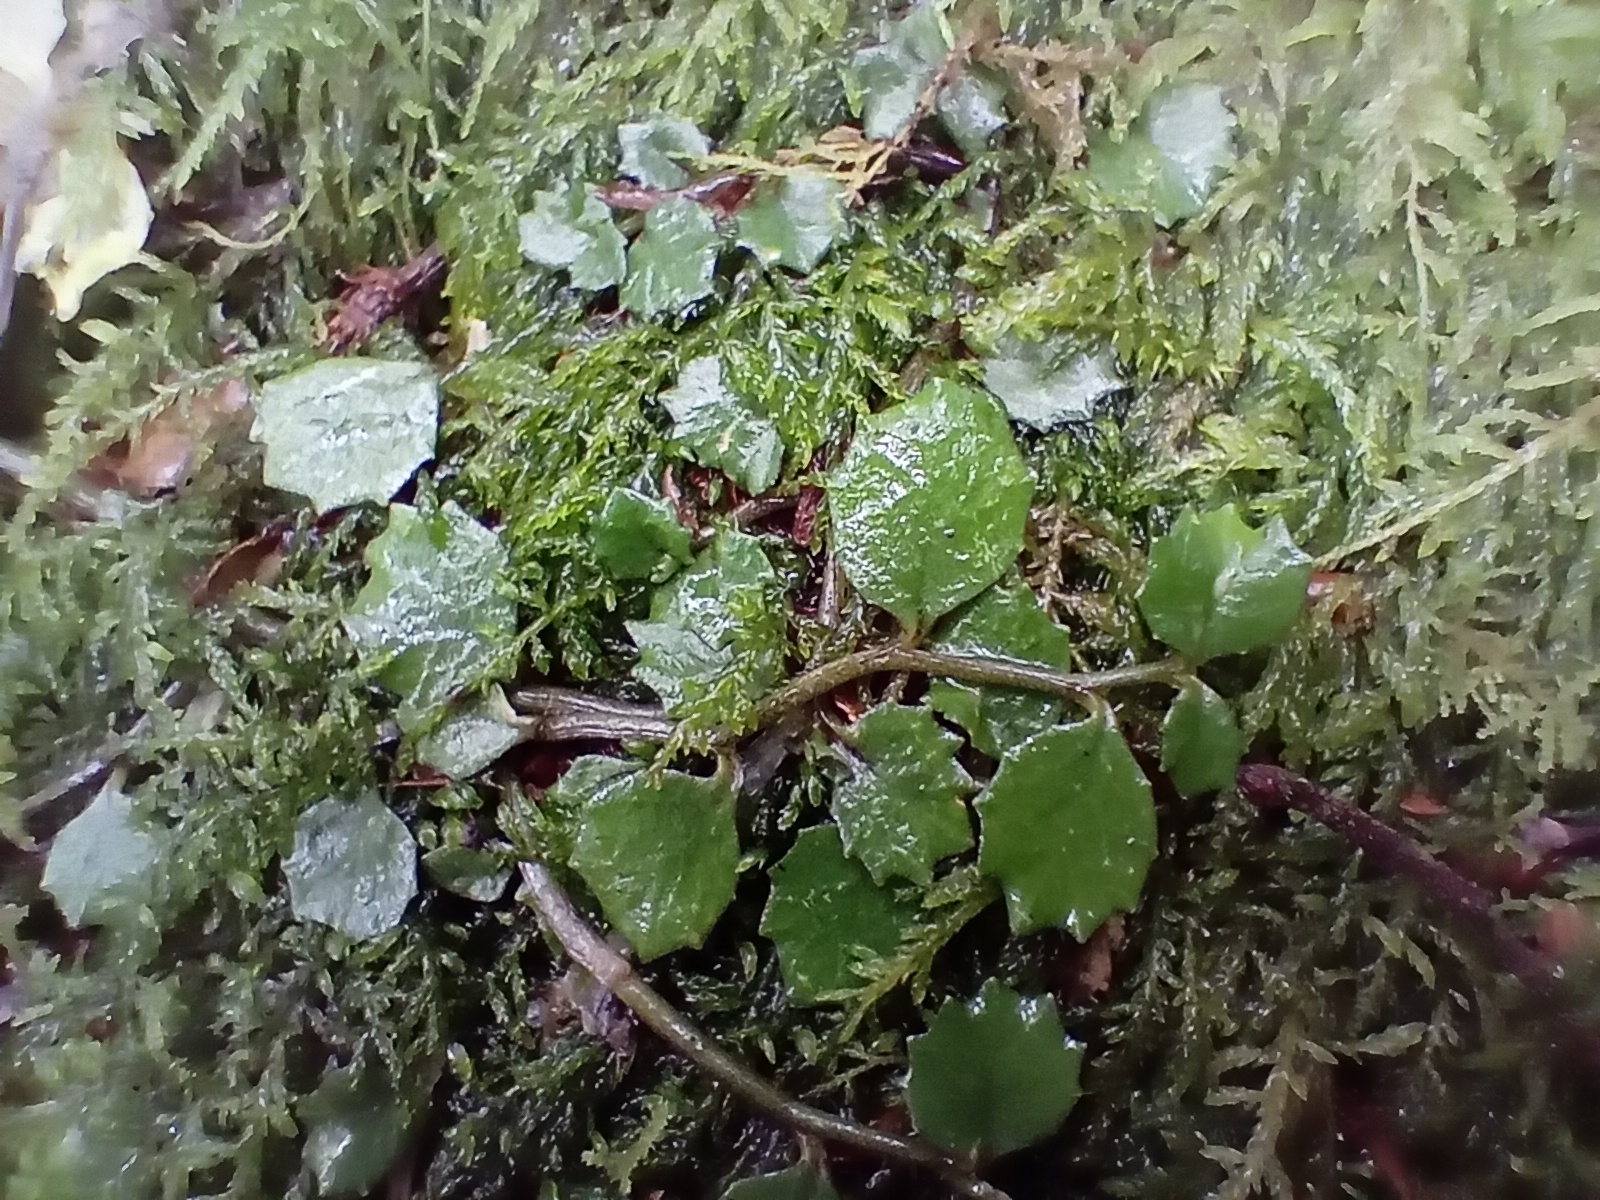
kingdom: Plantae
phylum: Tracheophyta
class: Magnoliopsida
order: Asterales
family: Campanulaceae
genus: Lobelia
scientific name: Lobelia angulata
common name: Lawn lobelia
